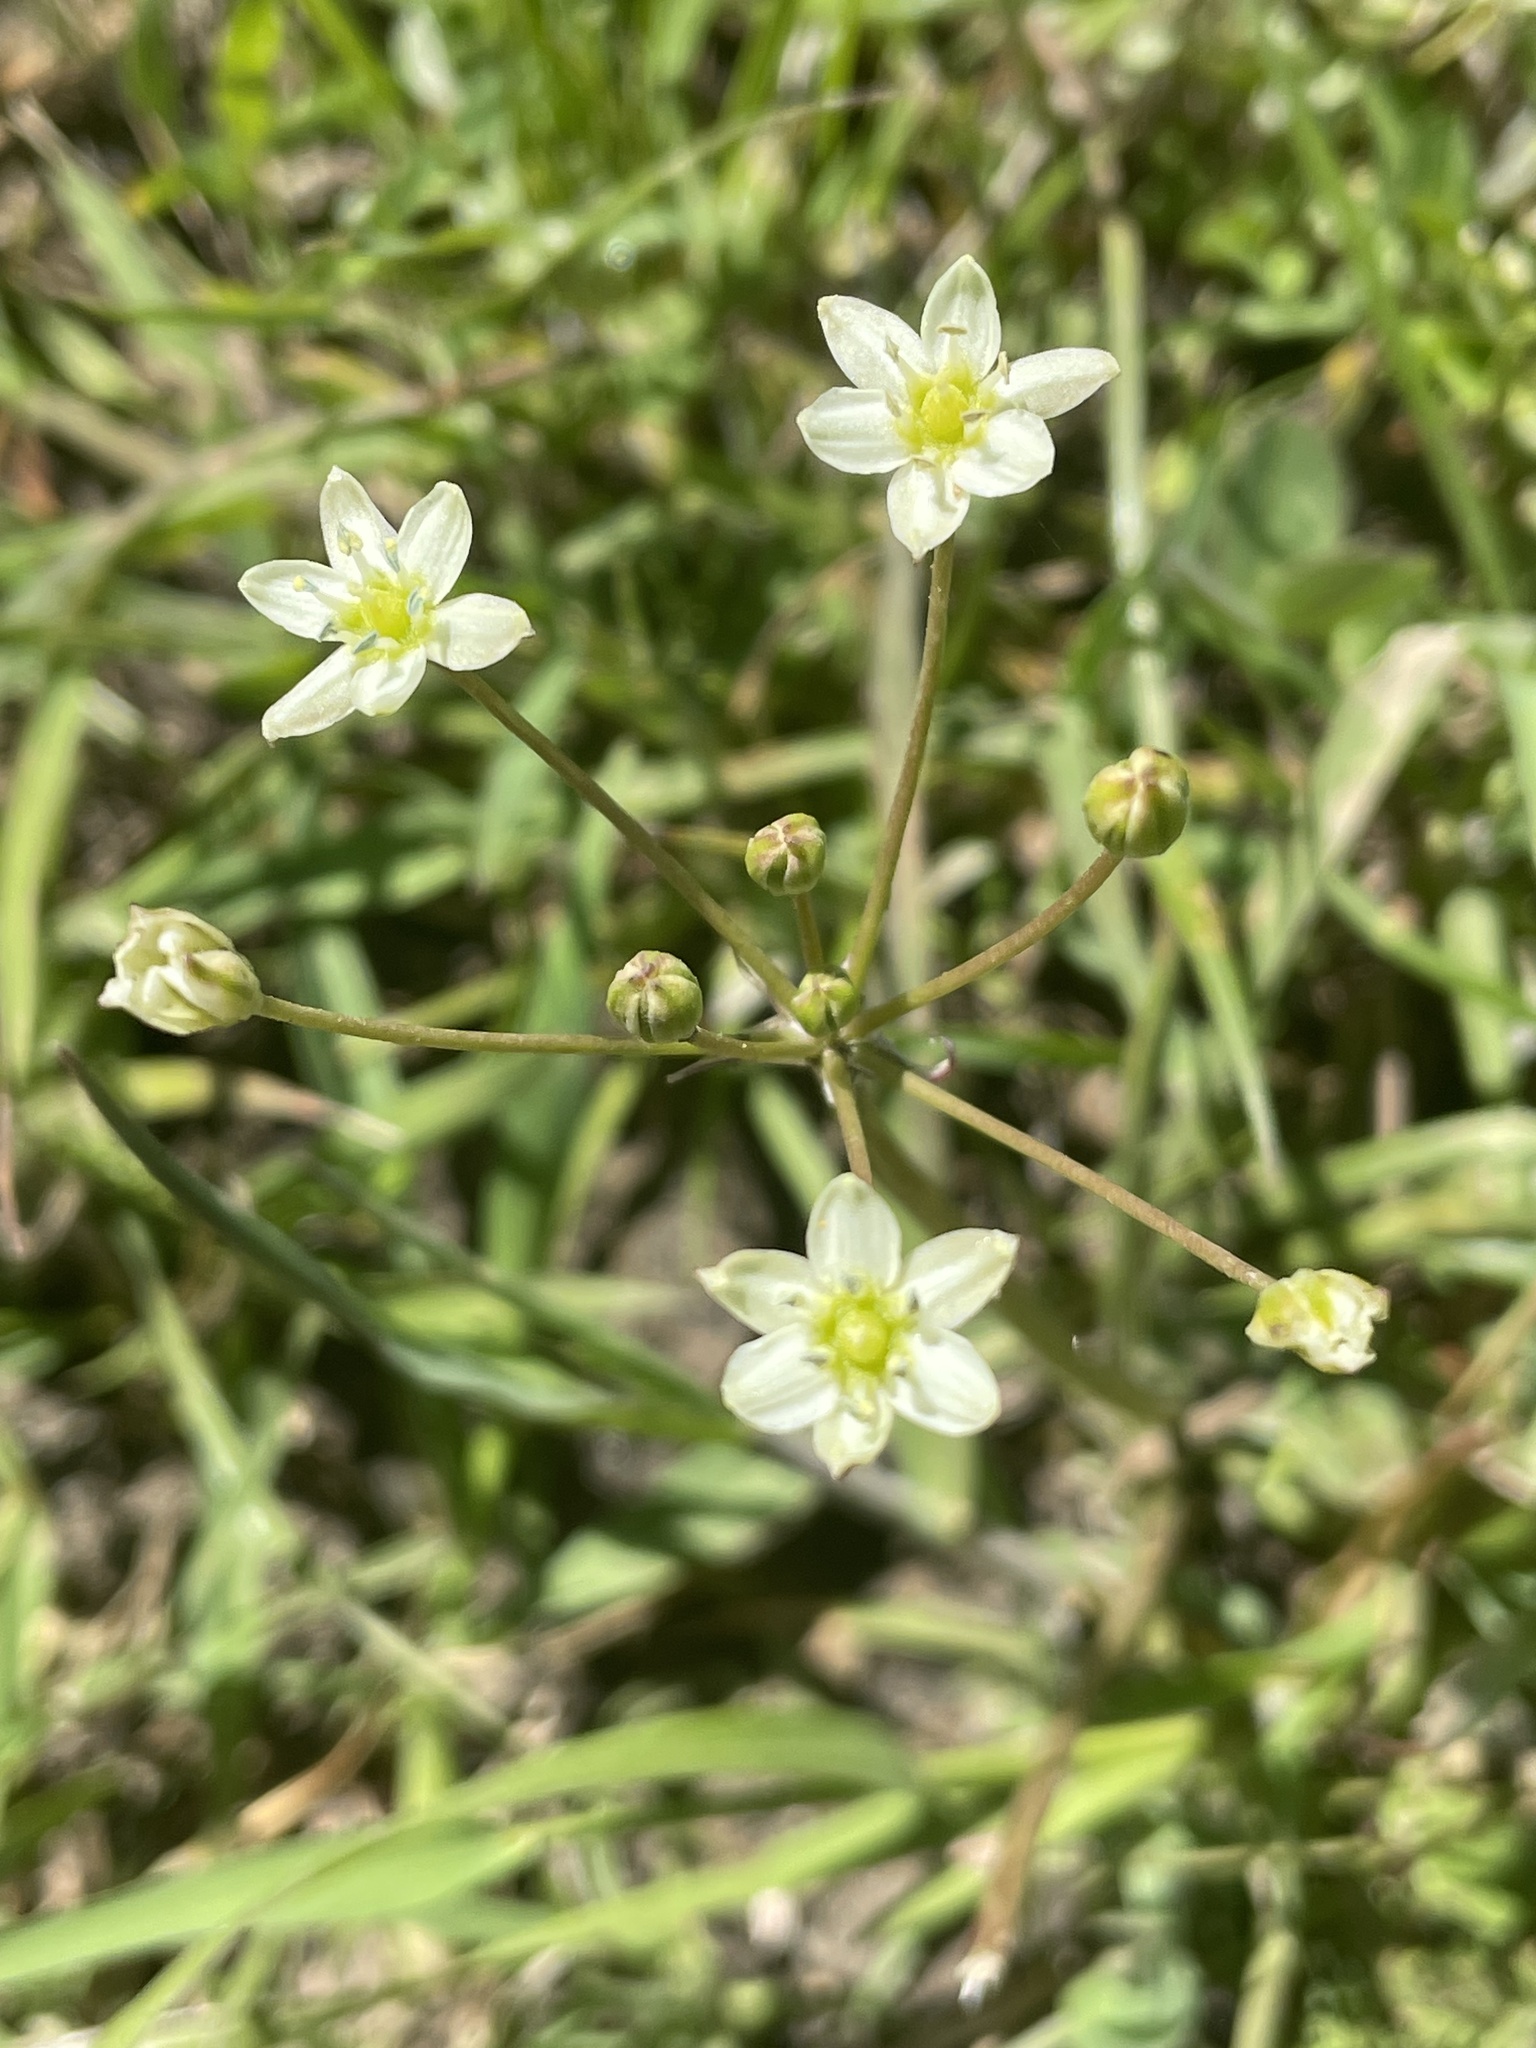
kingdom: Plantae
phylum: Tracheophyta
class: Liliopsida
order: Asparagales
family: Asparagaceae
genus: Muilla
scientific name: Muilla maritima
